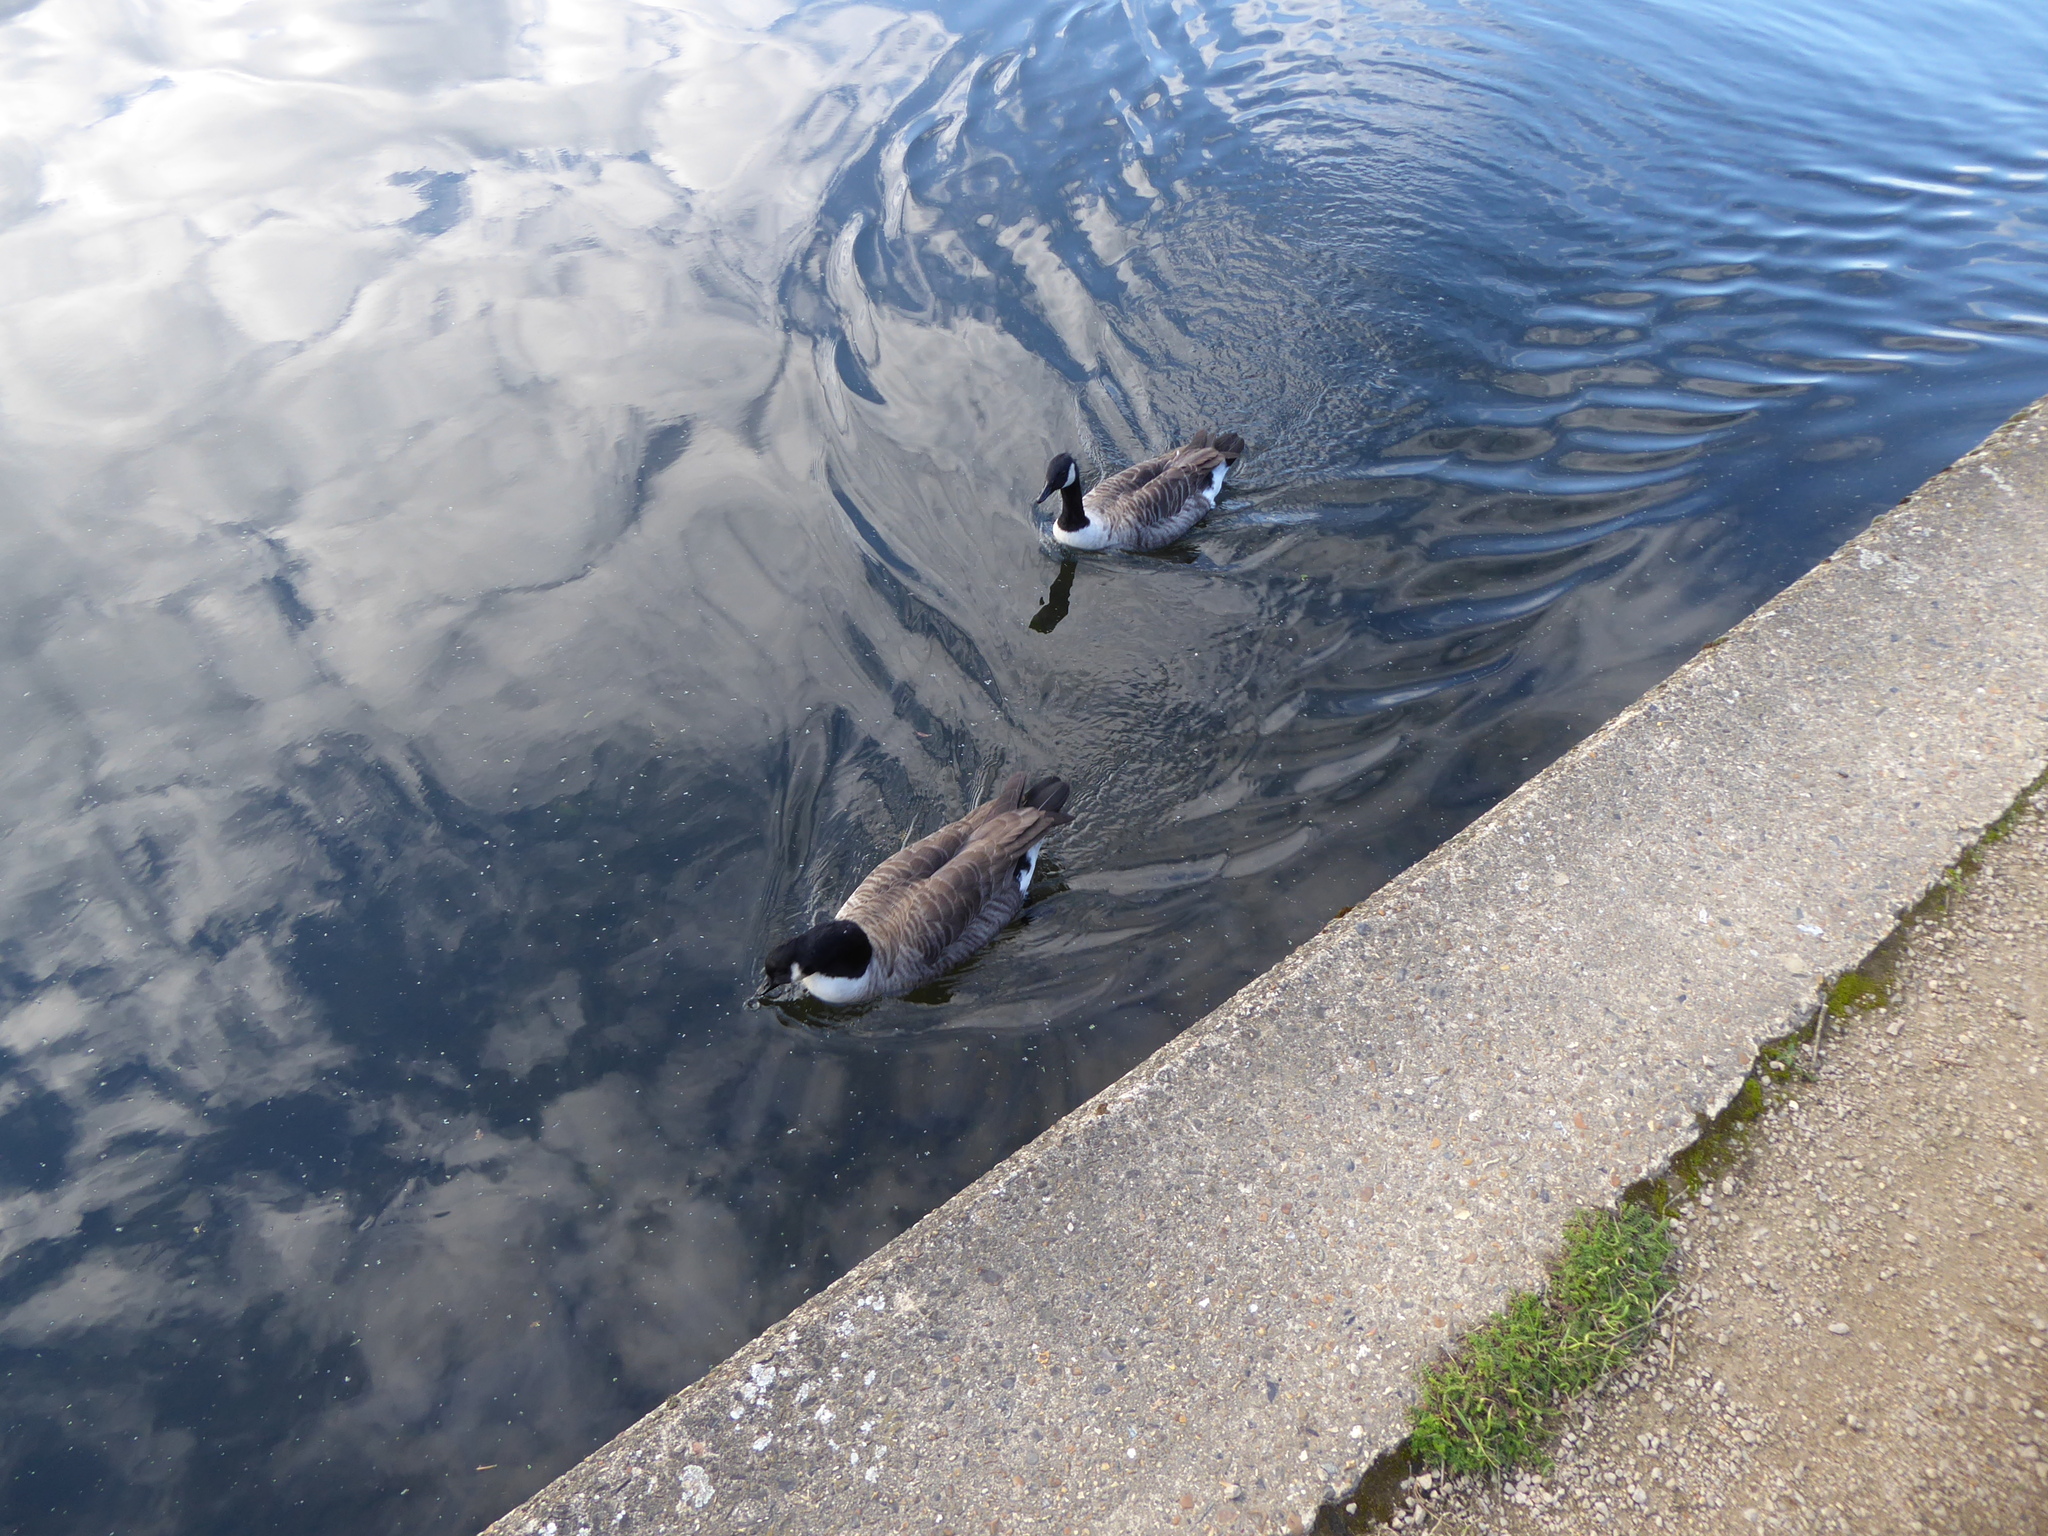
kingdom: Animalia
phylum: Chordata
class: Aves
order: Anseriformes
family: Anatidae
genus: Branta
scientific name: Branta canadensis
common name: Canada goose
